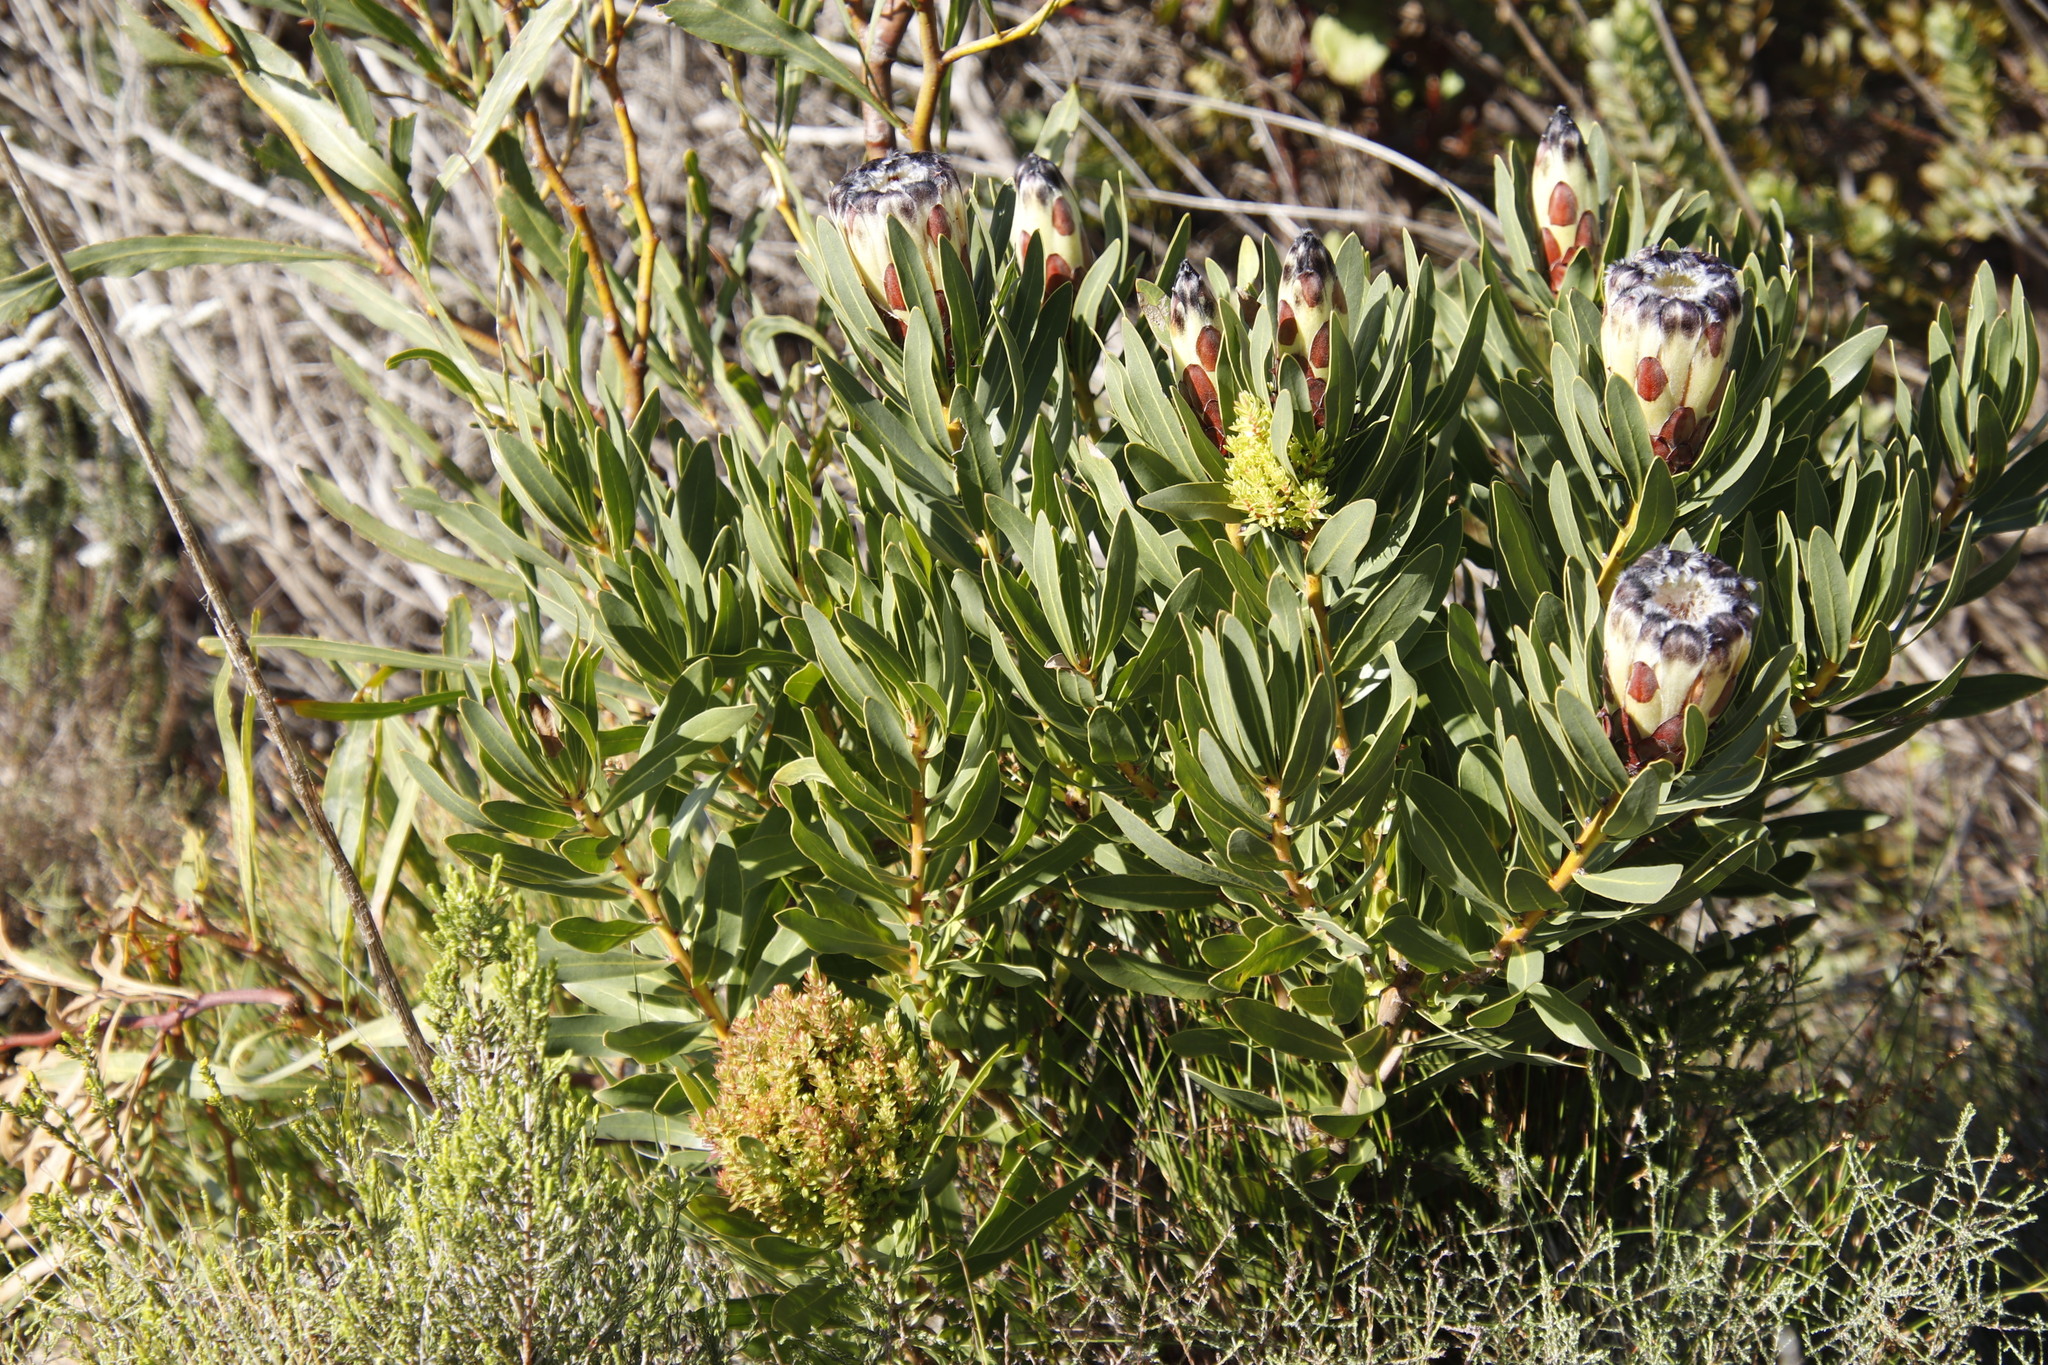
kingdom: Bacteria
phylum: Firmicutes
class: Bacilli
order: Acholeplasmatales
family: Acholeplasmataceae
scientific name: Acholeplasmataceae
